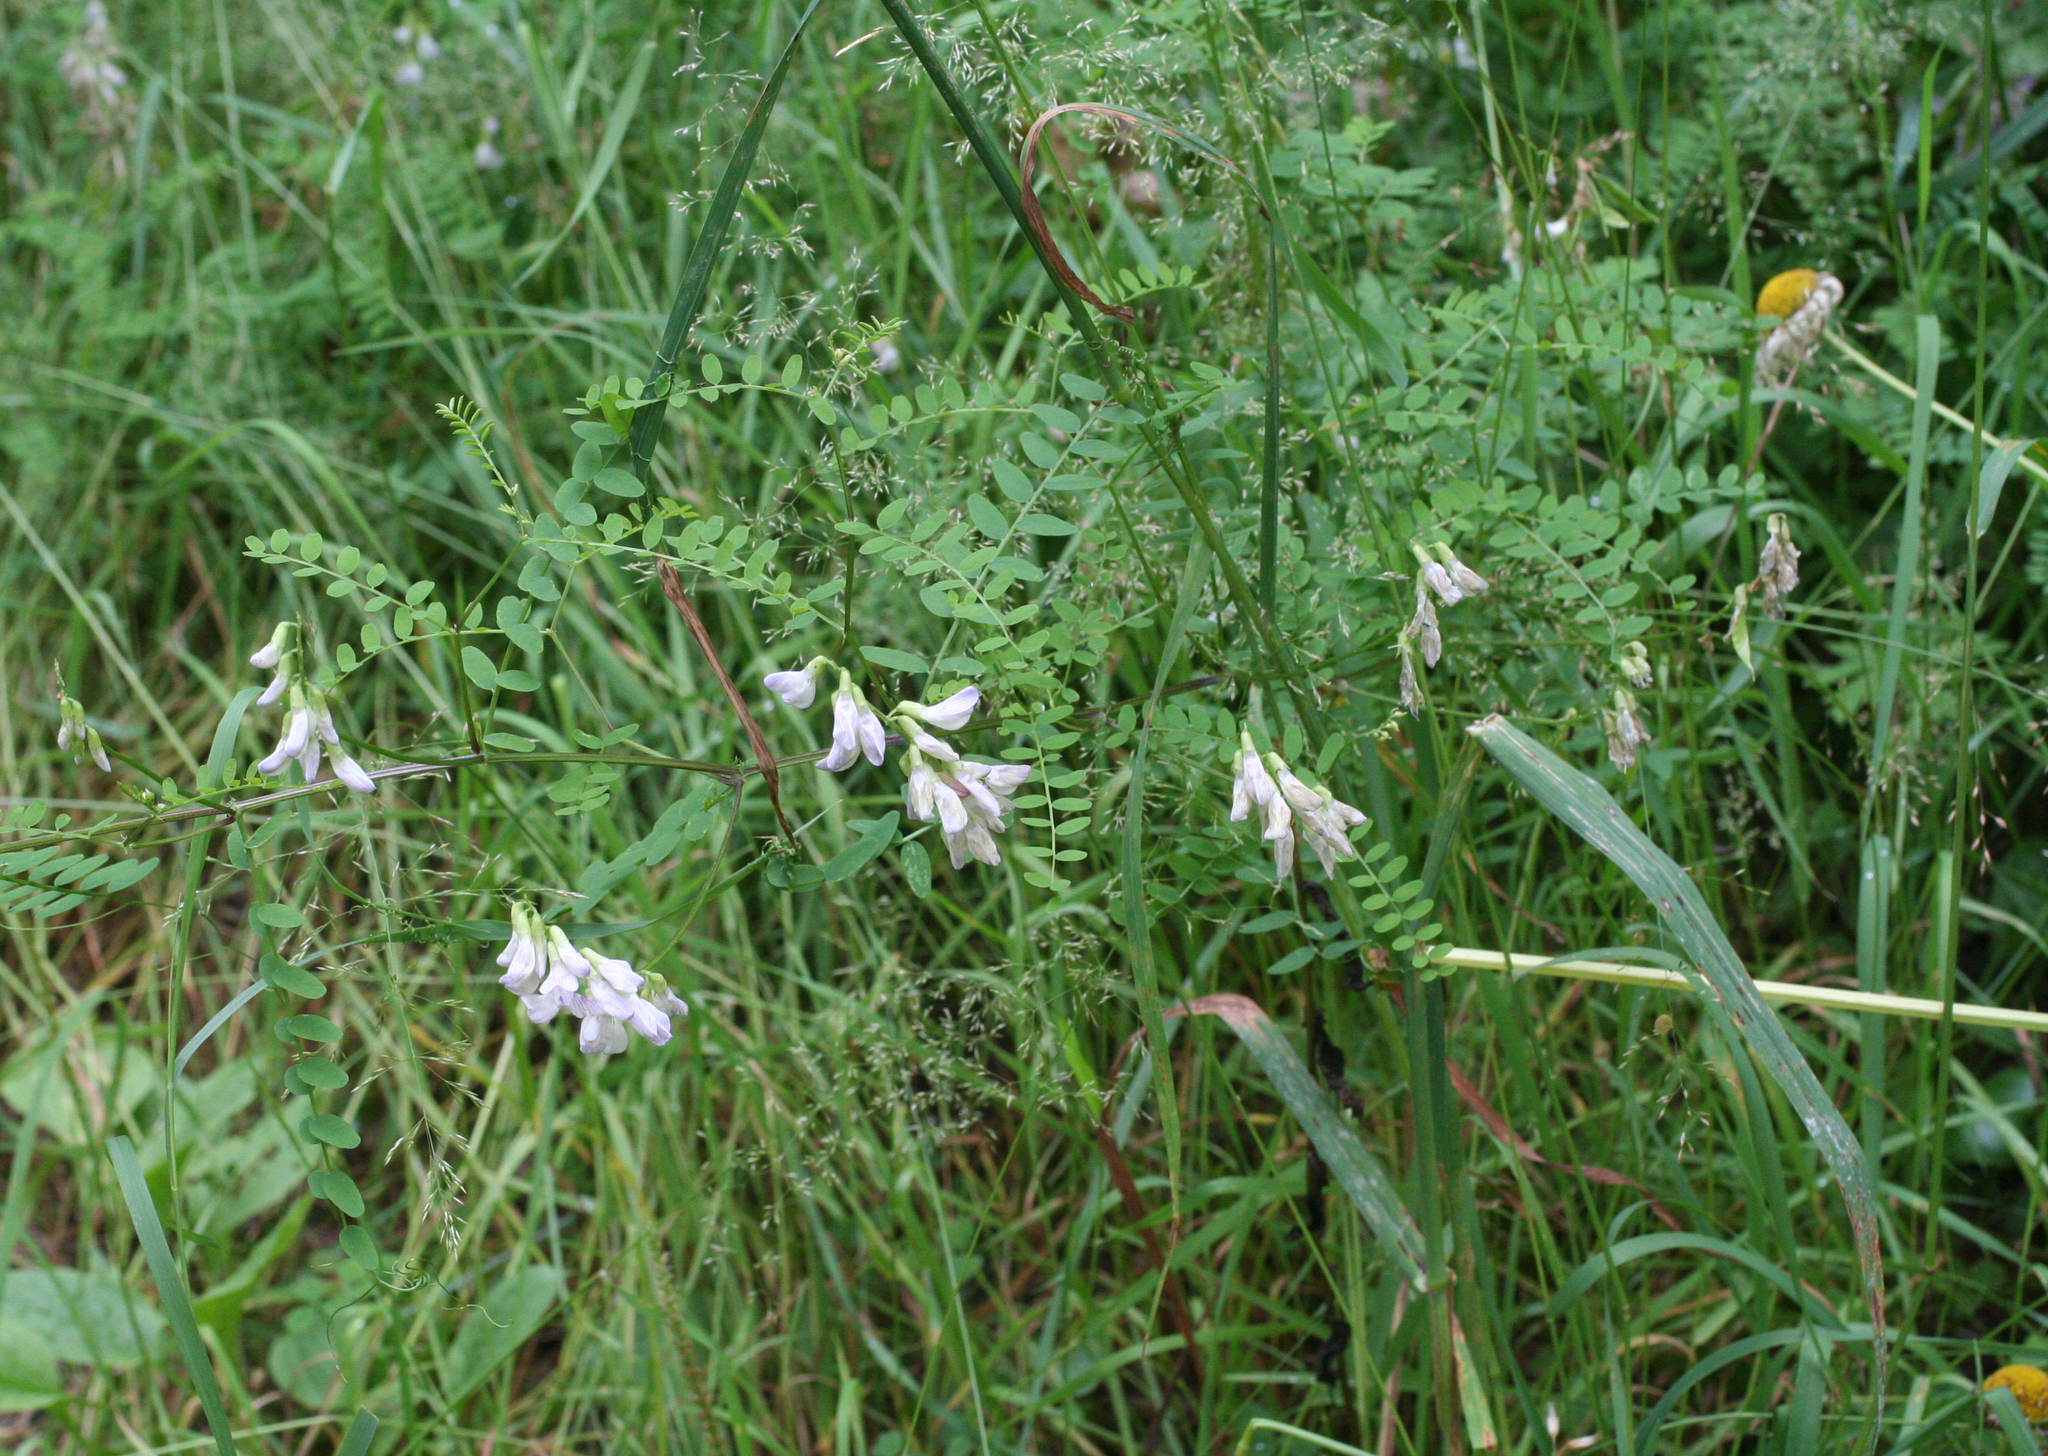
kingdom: Plantae
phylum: Tracheophyta
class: Magnoliopsida
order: Fabales
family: Fabaceae
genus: Vicia
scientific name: Vicia sylvatica
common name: Wood vetch
